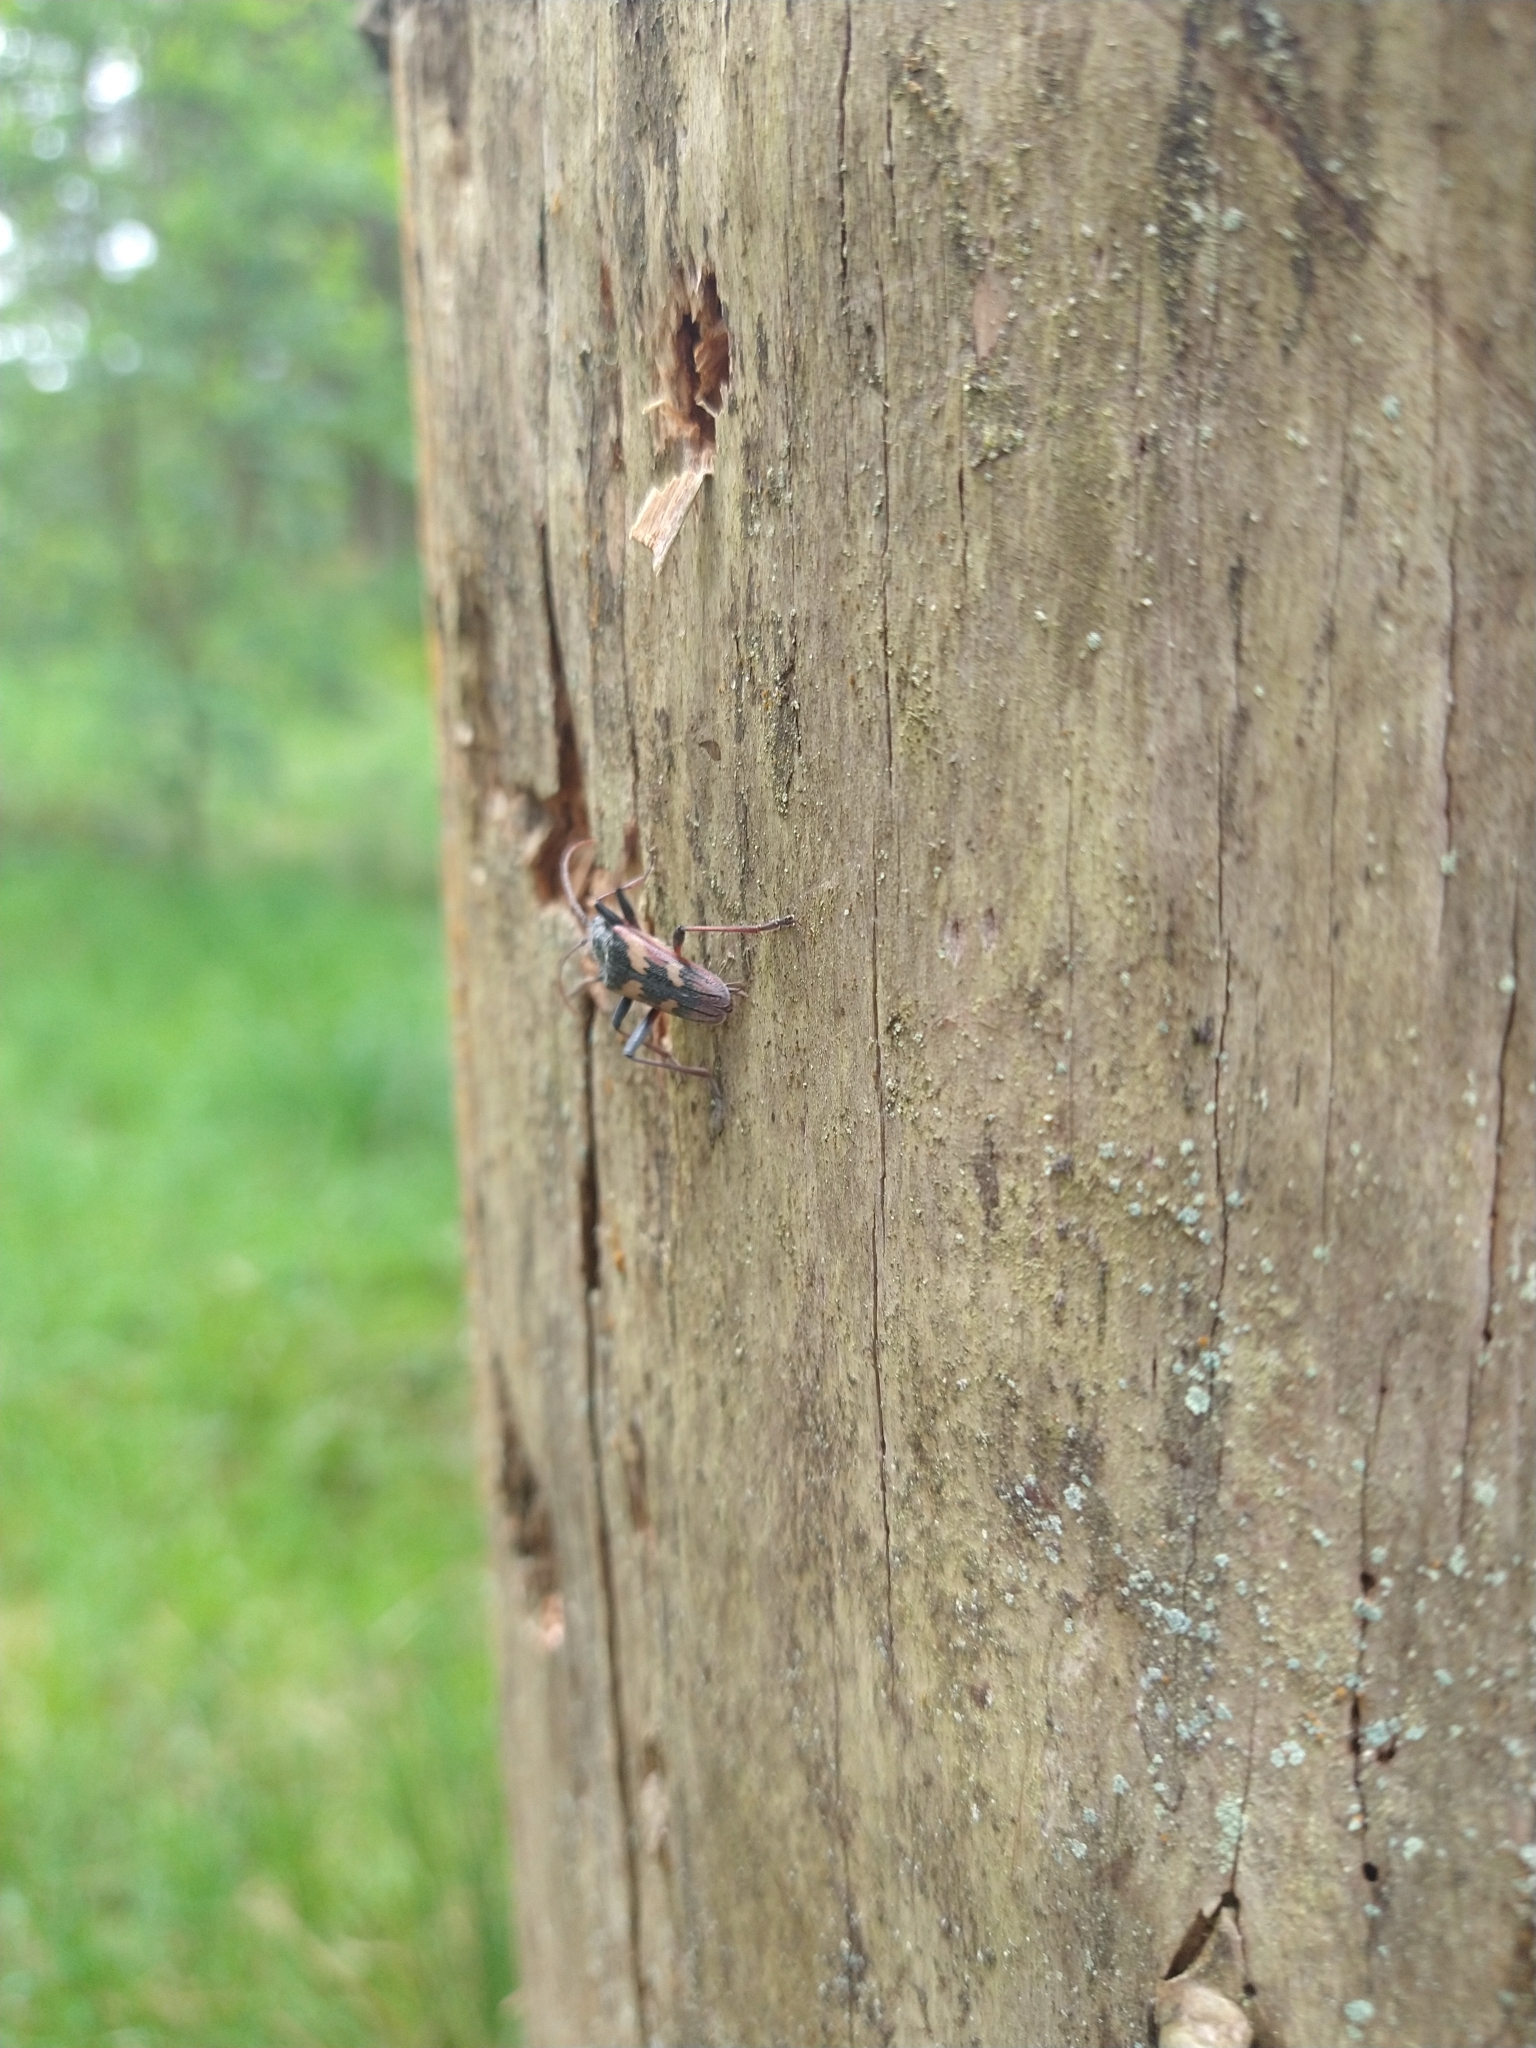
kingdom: Animalia
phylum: Arthropoda
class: Insecta
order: Coleoptera
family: Cerambycidae
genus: Rhagium
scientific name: Rhagium bifasciatum
